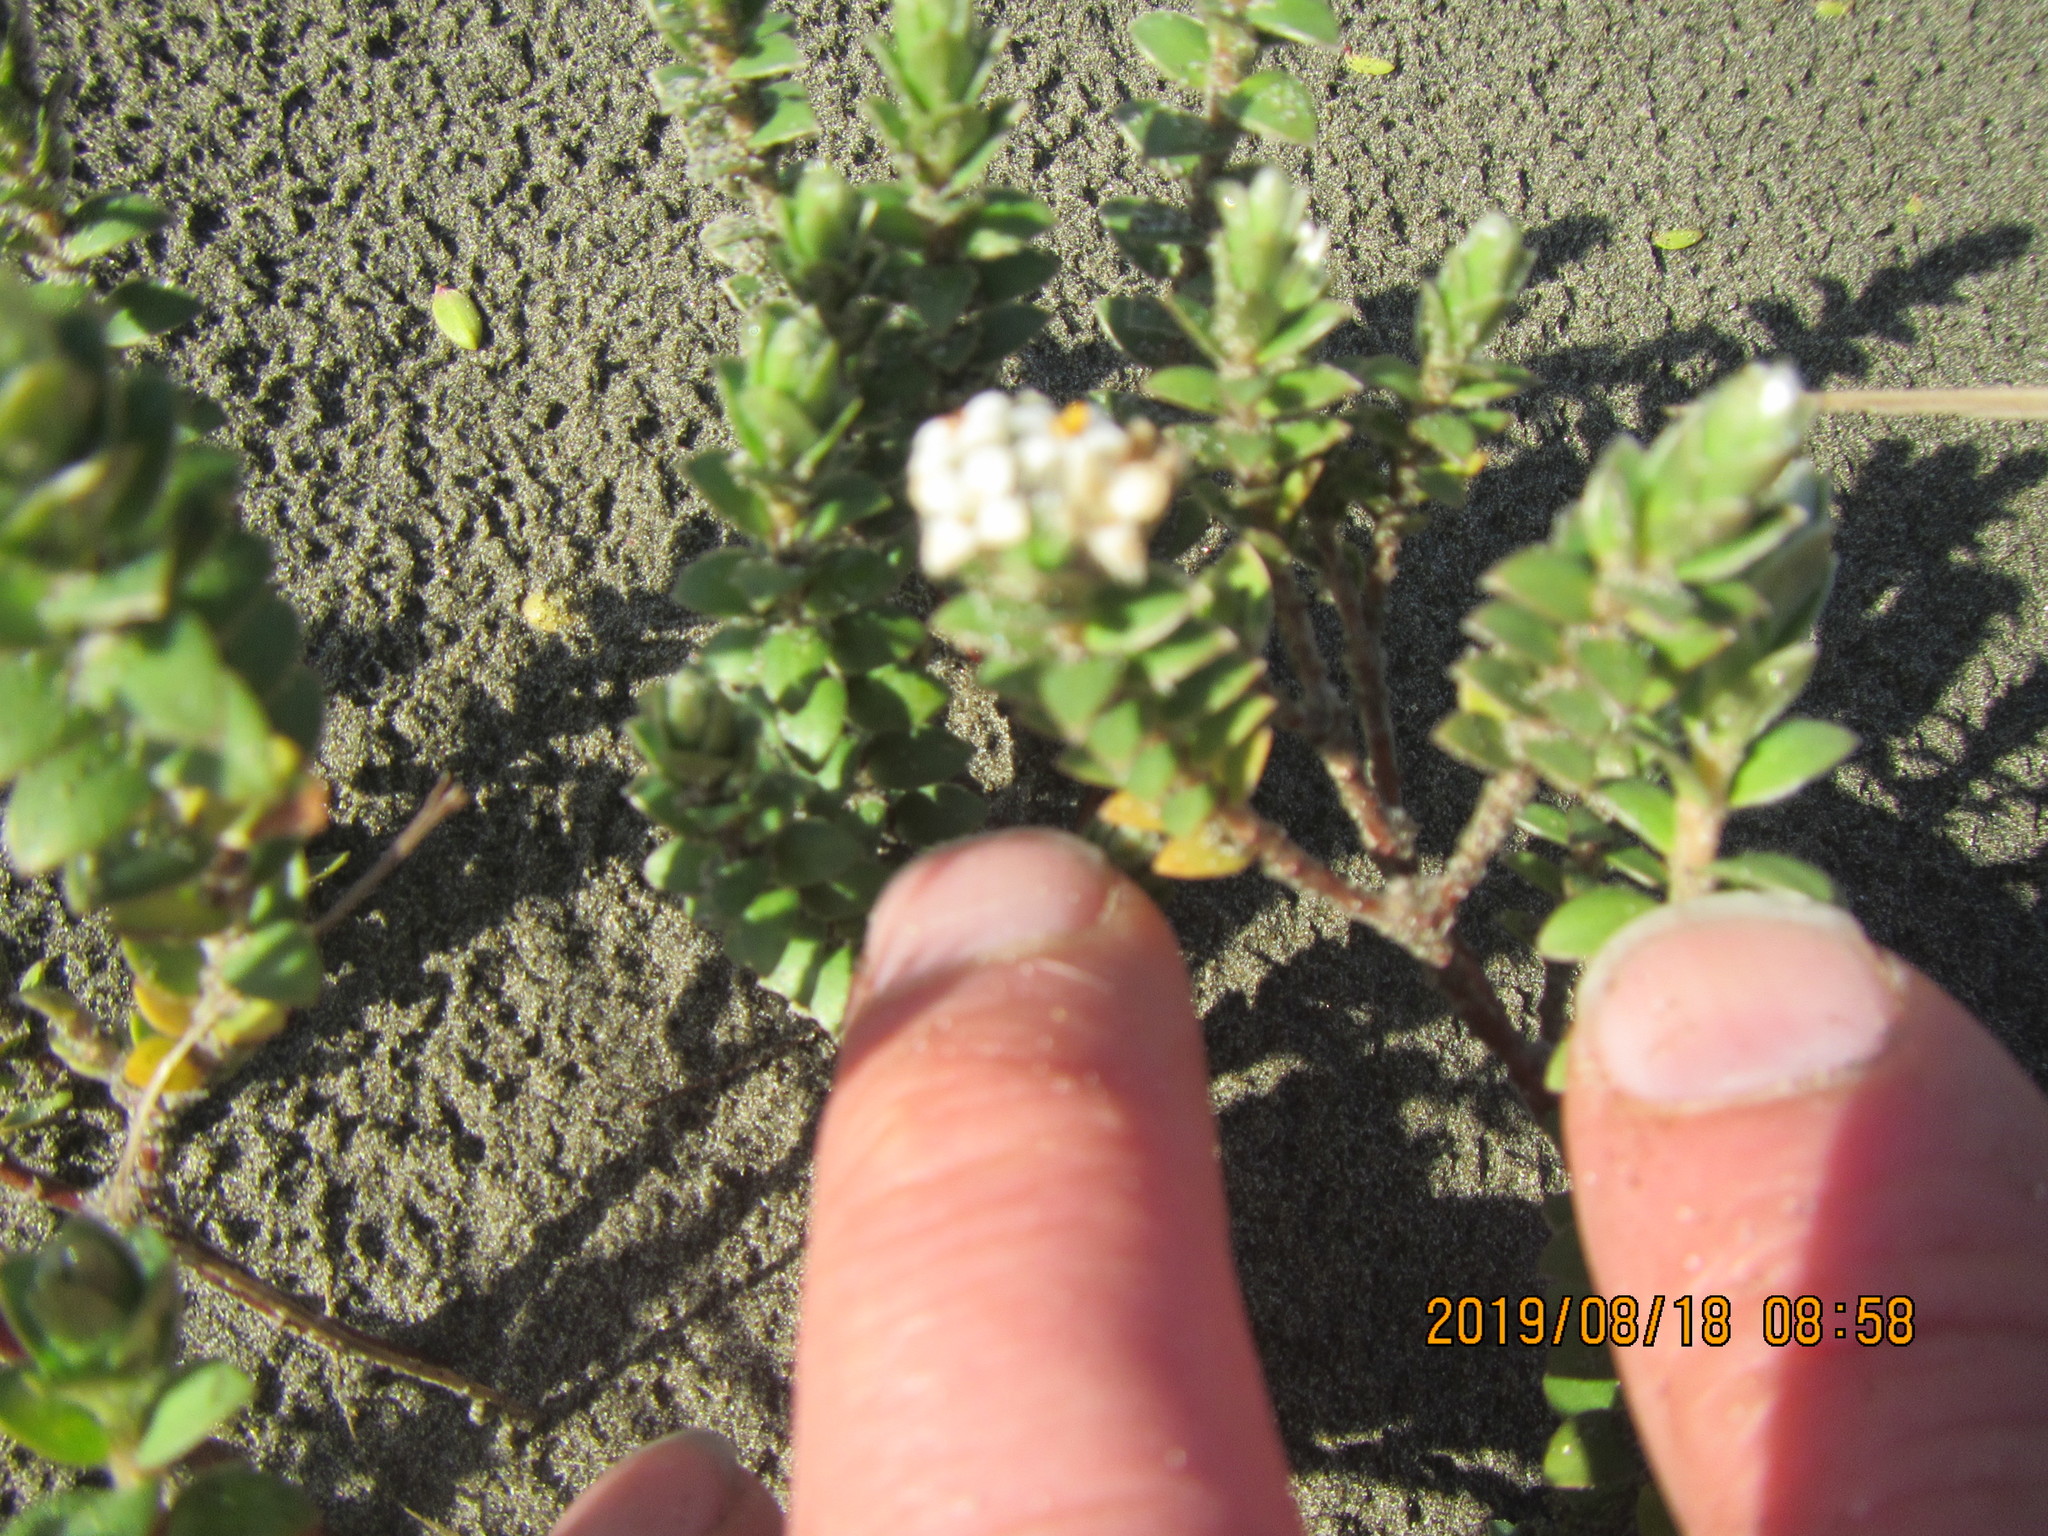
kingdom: Plantae
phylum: Tracheophyta
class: Magnoliopsida
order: Malvales
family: Thymelaeaceae
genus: Pimelea
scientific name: Pimelea villosa
